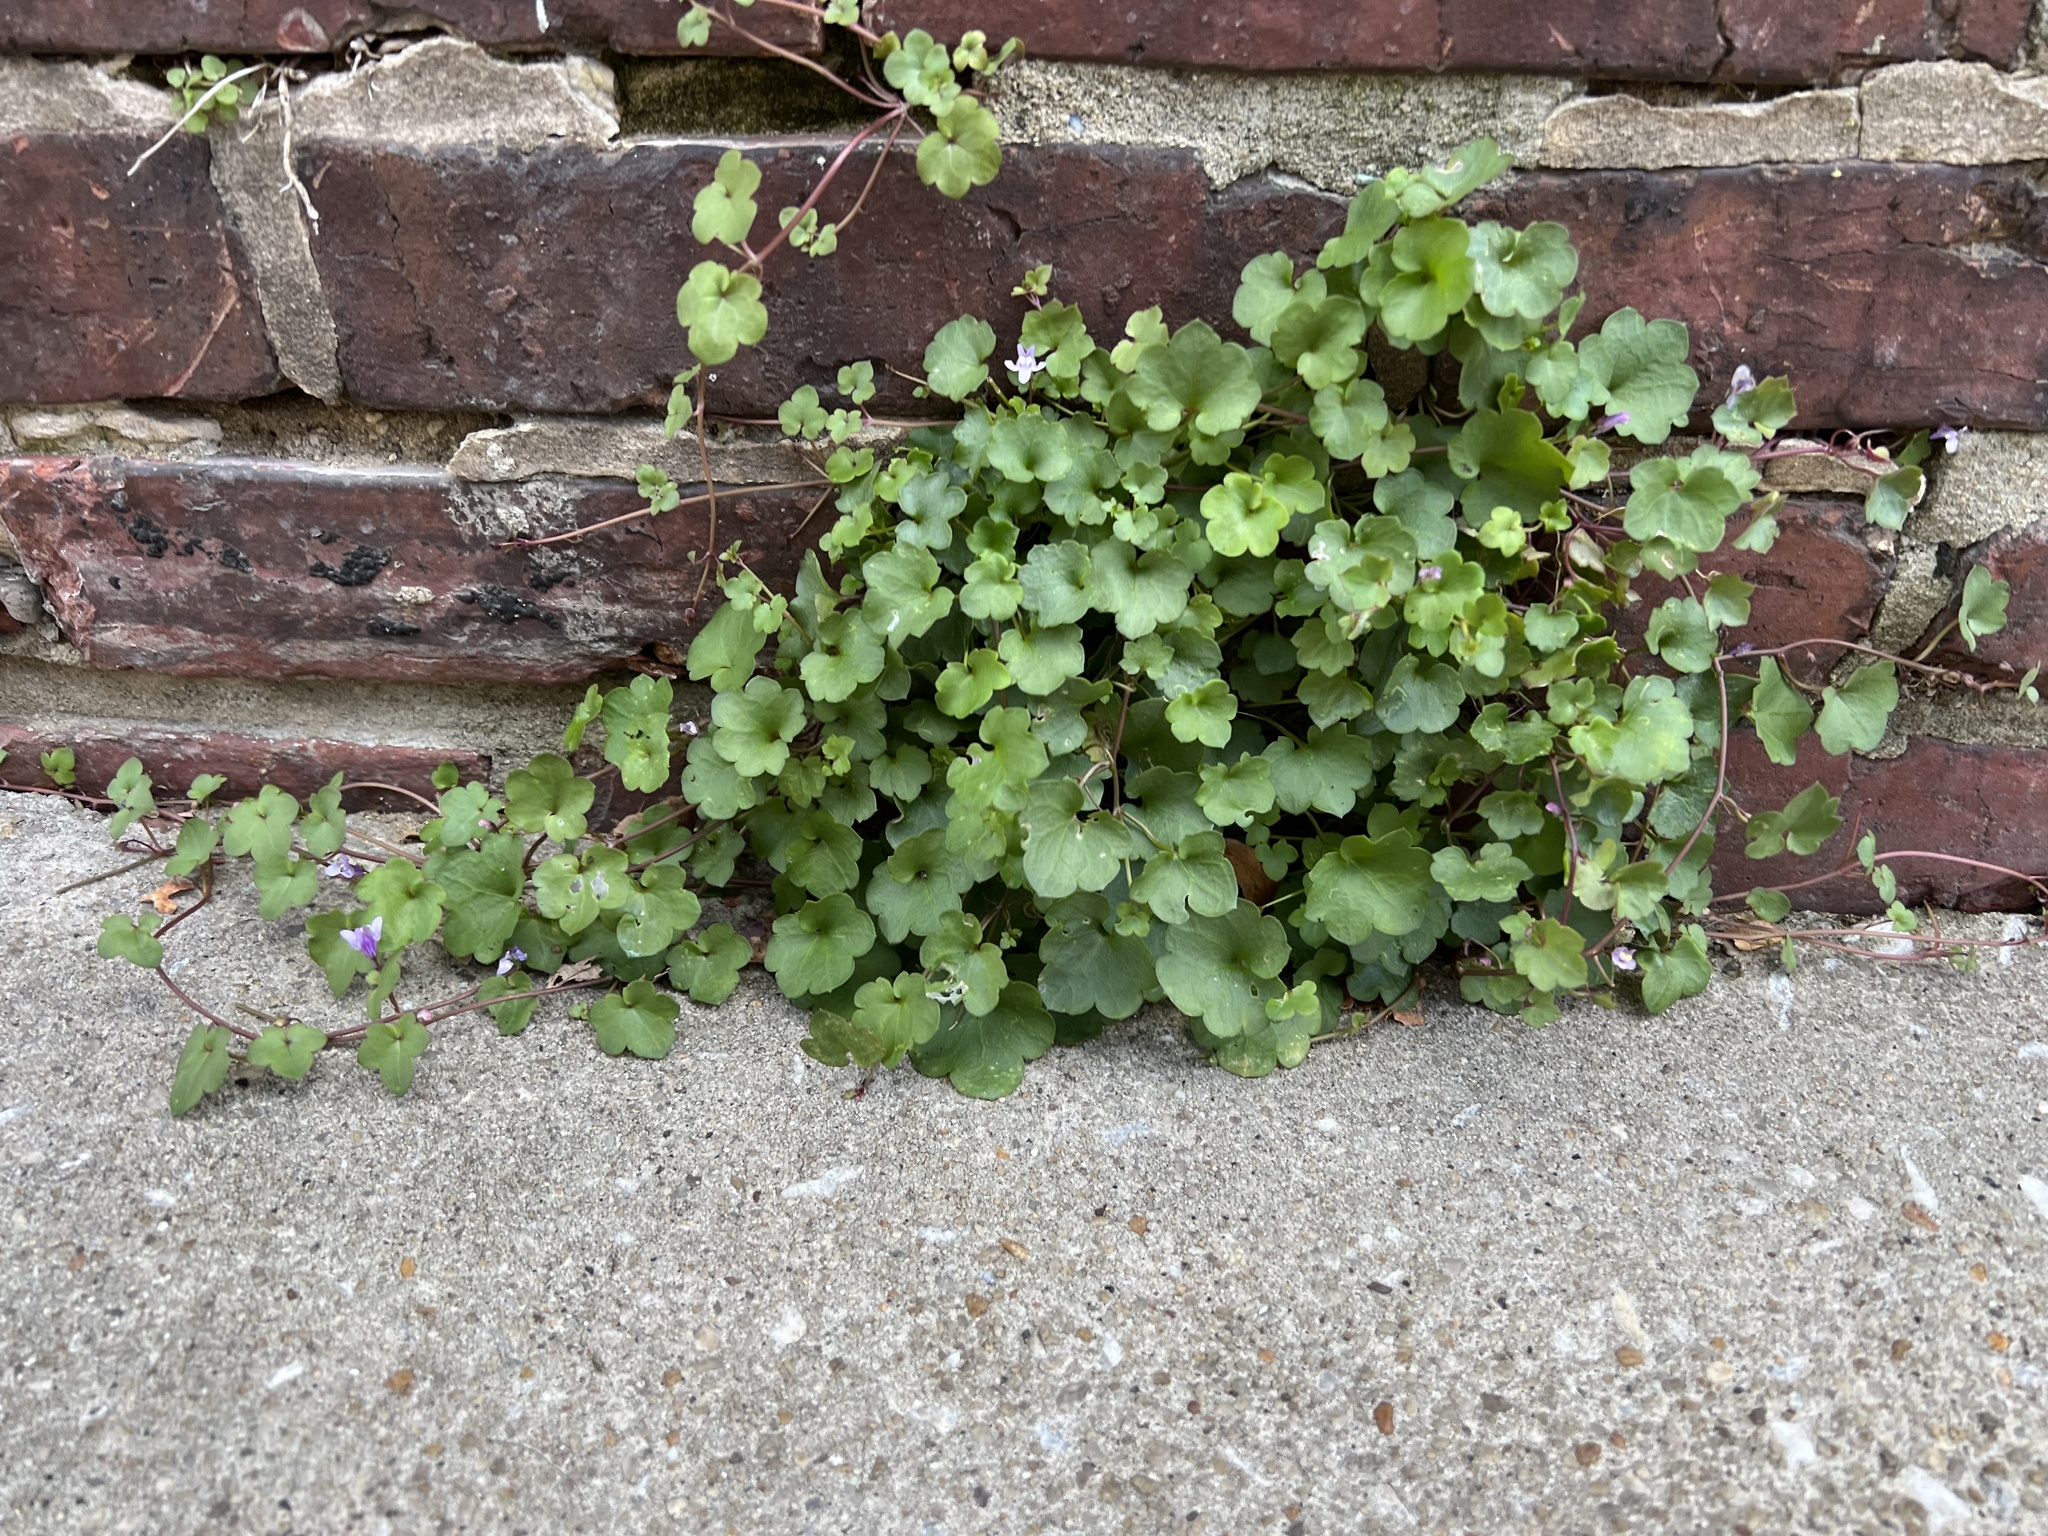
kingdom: Plantae
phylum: Tracheophyta
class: Magnoliopsida
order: Lamiales
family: Plantaginaceae
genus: Cymbalaria
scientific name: Cymbalaria muralis
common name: Ivy-leaved toadflax
